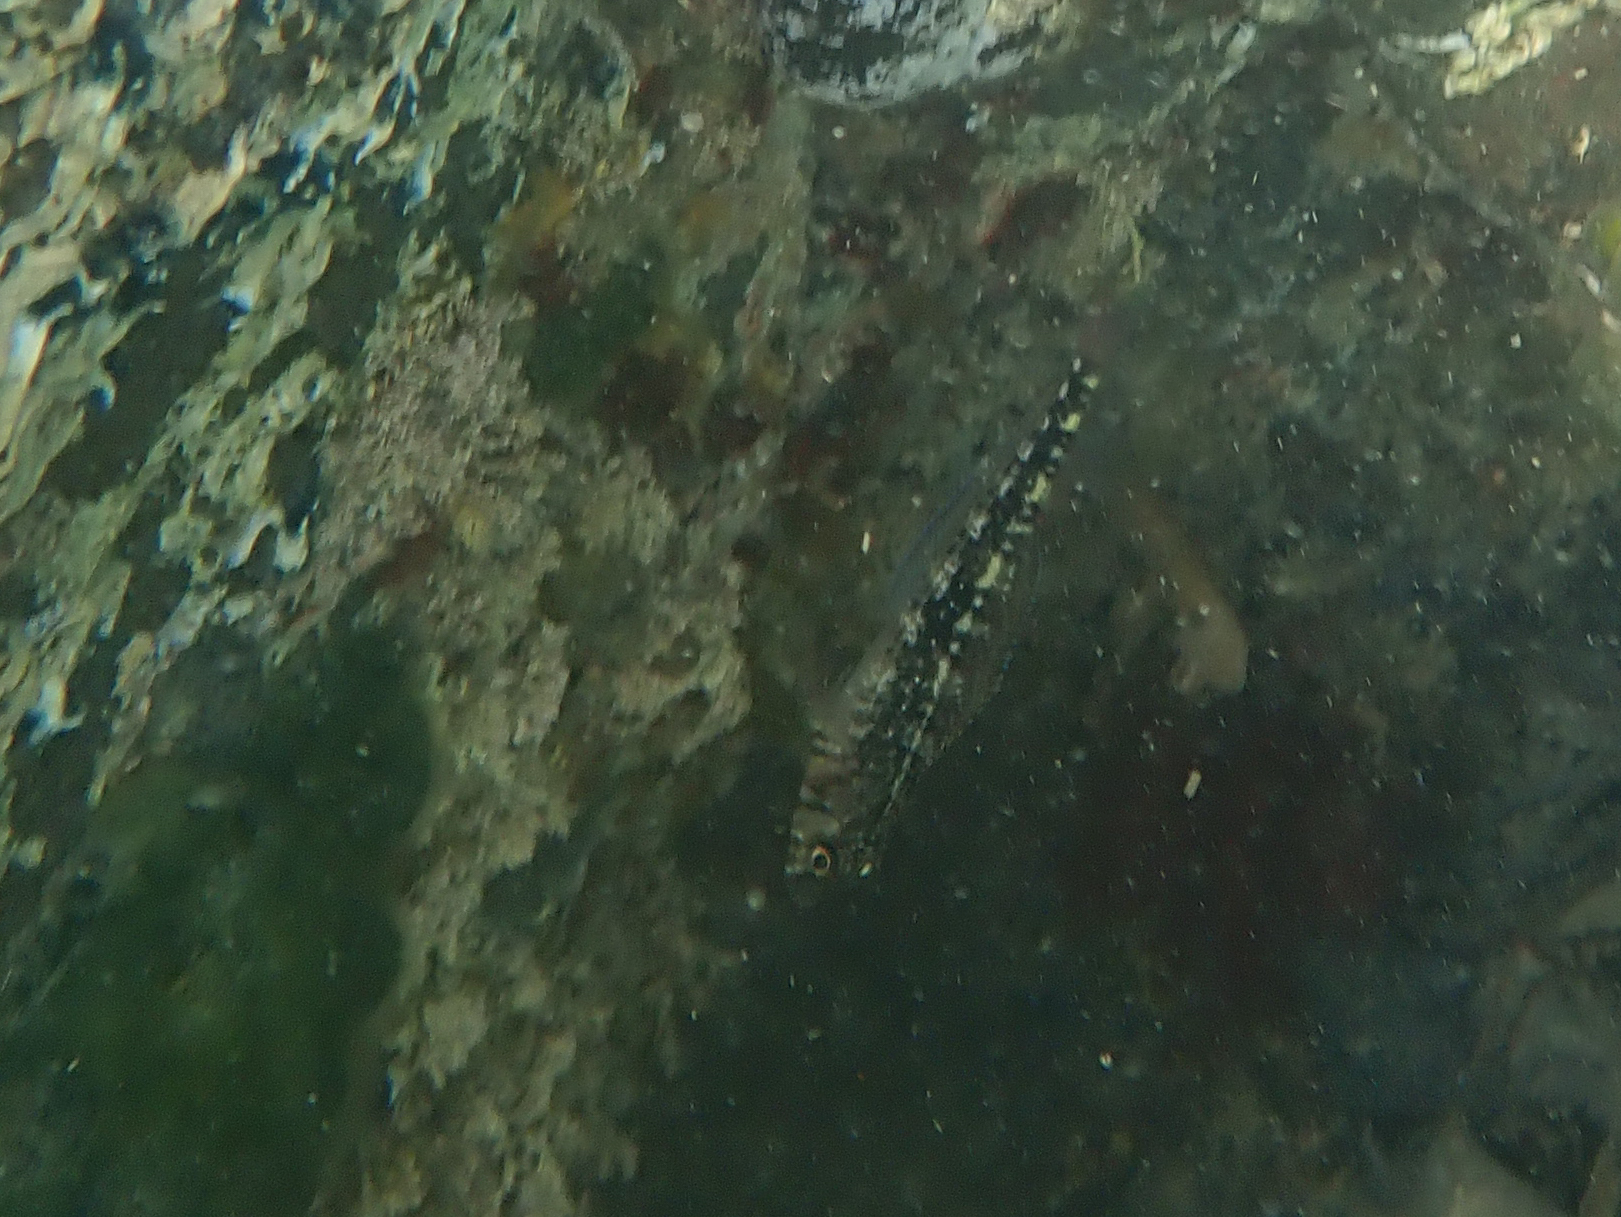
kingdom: Animalia
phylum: Chordata
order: Perciformes
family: Tripterygiidae
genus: Forsterygion
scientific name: Forsterygion varium
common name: Variable triplefin
